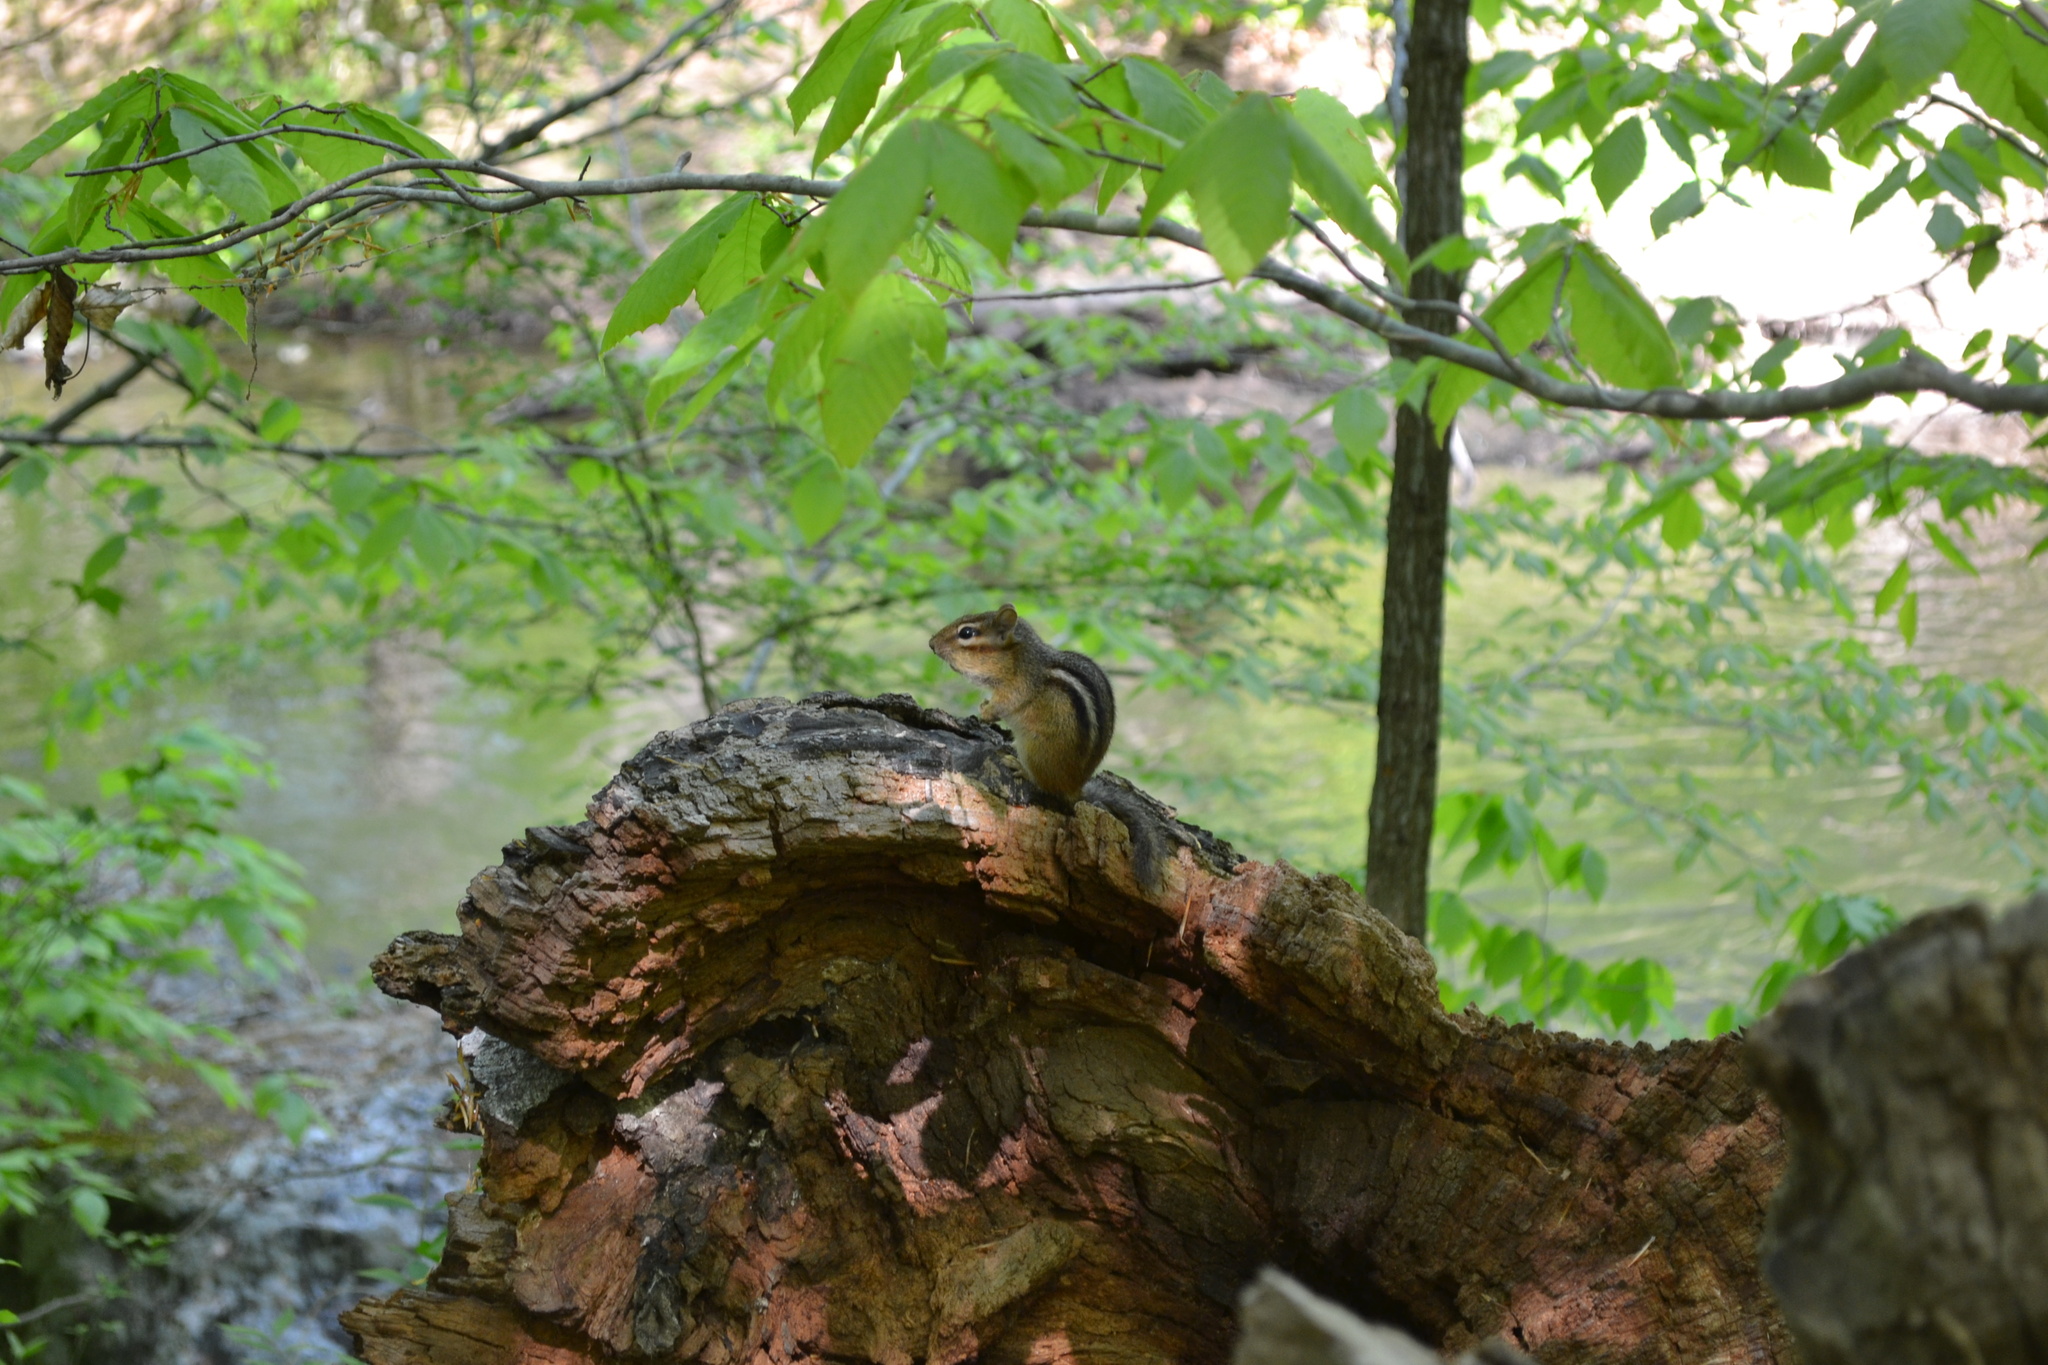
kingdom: Animalia
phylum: Chordata
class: Mammalia
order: Rodentia
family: Sciuridae
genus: Tamias
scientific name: Tamias striatus
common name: Eastern chipmunk
